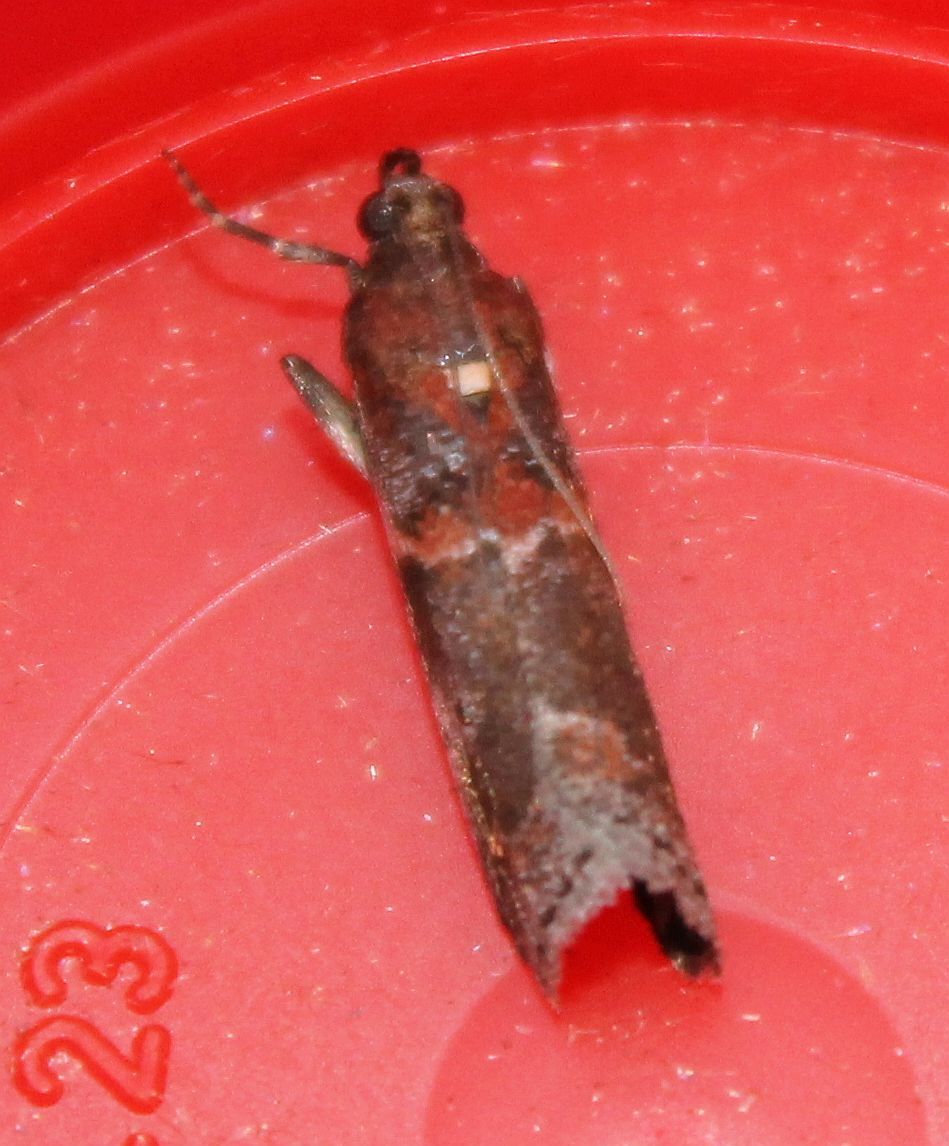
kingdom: Animalia
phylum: Arthropoda
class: Insecta
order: Lepidoptera
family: Pyralidae
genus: Acrobasis
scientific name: Acrobasis suavella
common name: Pyralid moth
